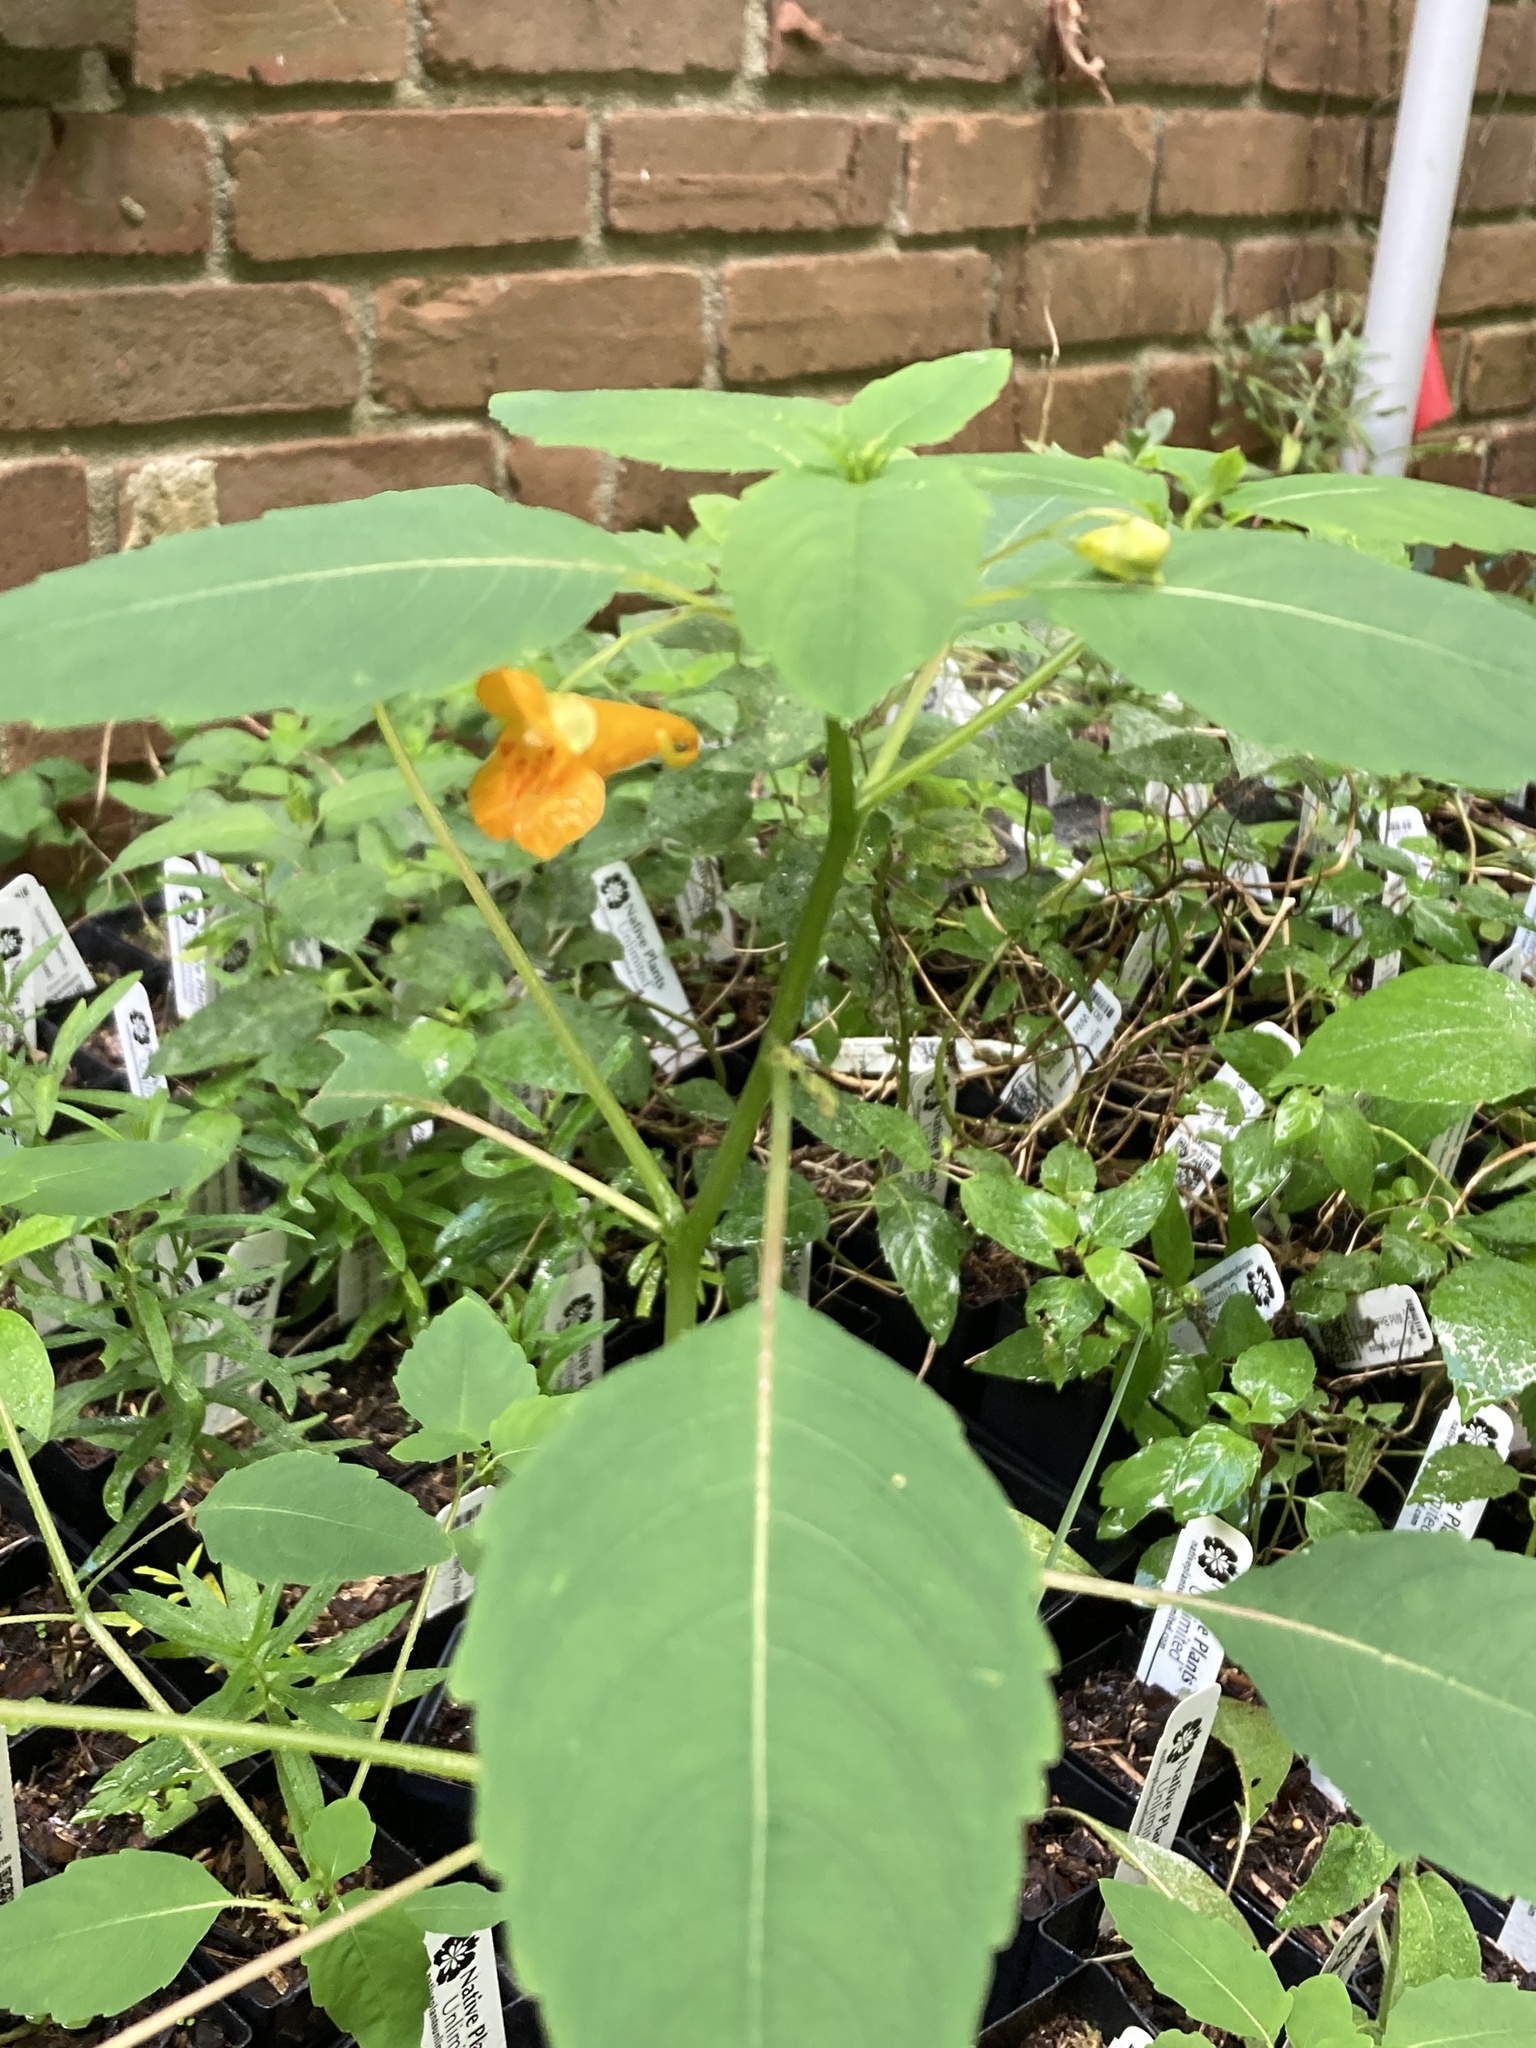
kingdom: Plantae
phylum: Tracheophyta
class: Magnoliopsida
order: Ericales
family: Balsaminaceae
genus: Impatiens
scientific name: Impatiens capensis
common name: Orange balsam
